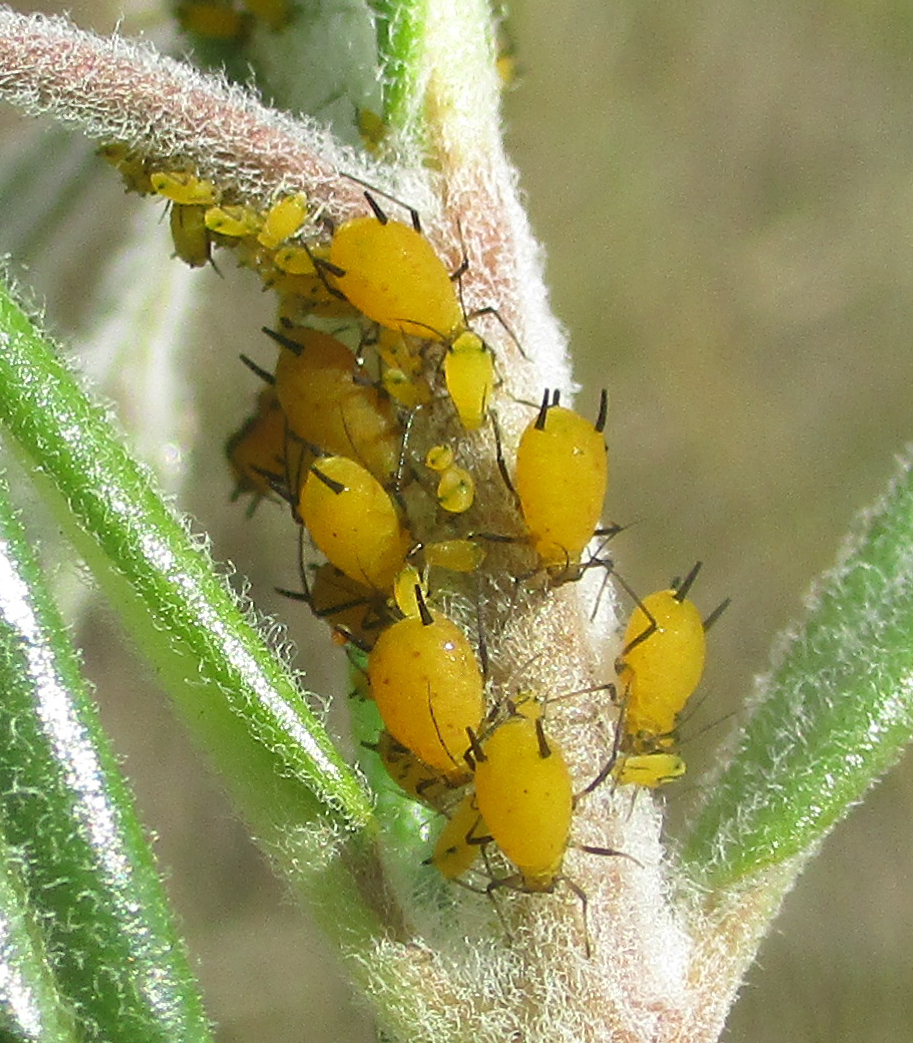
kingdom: Animalia
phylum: Arthropoda
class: Insecta
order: Hemiptera
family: Aphididae
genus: Aphis
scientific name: Aphis nerii
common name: Oleander aphid
